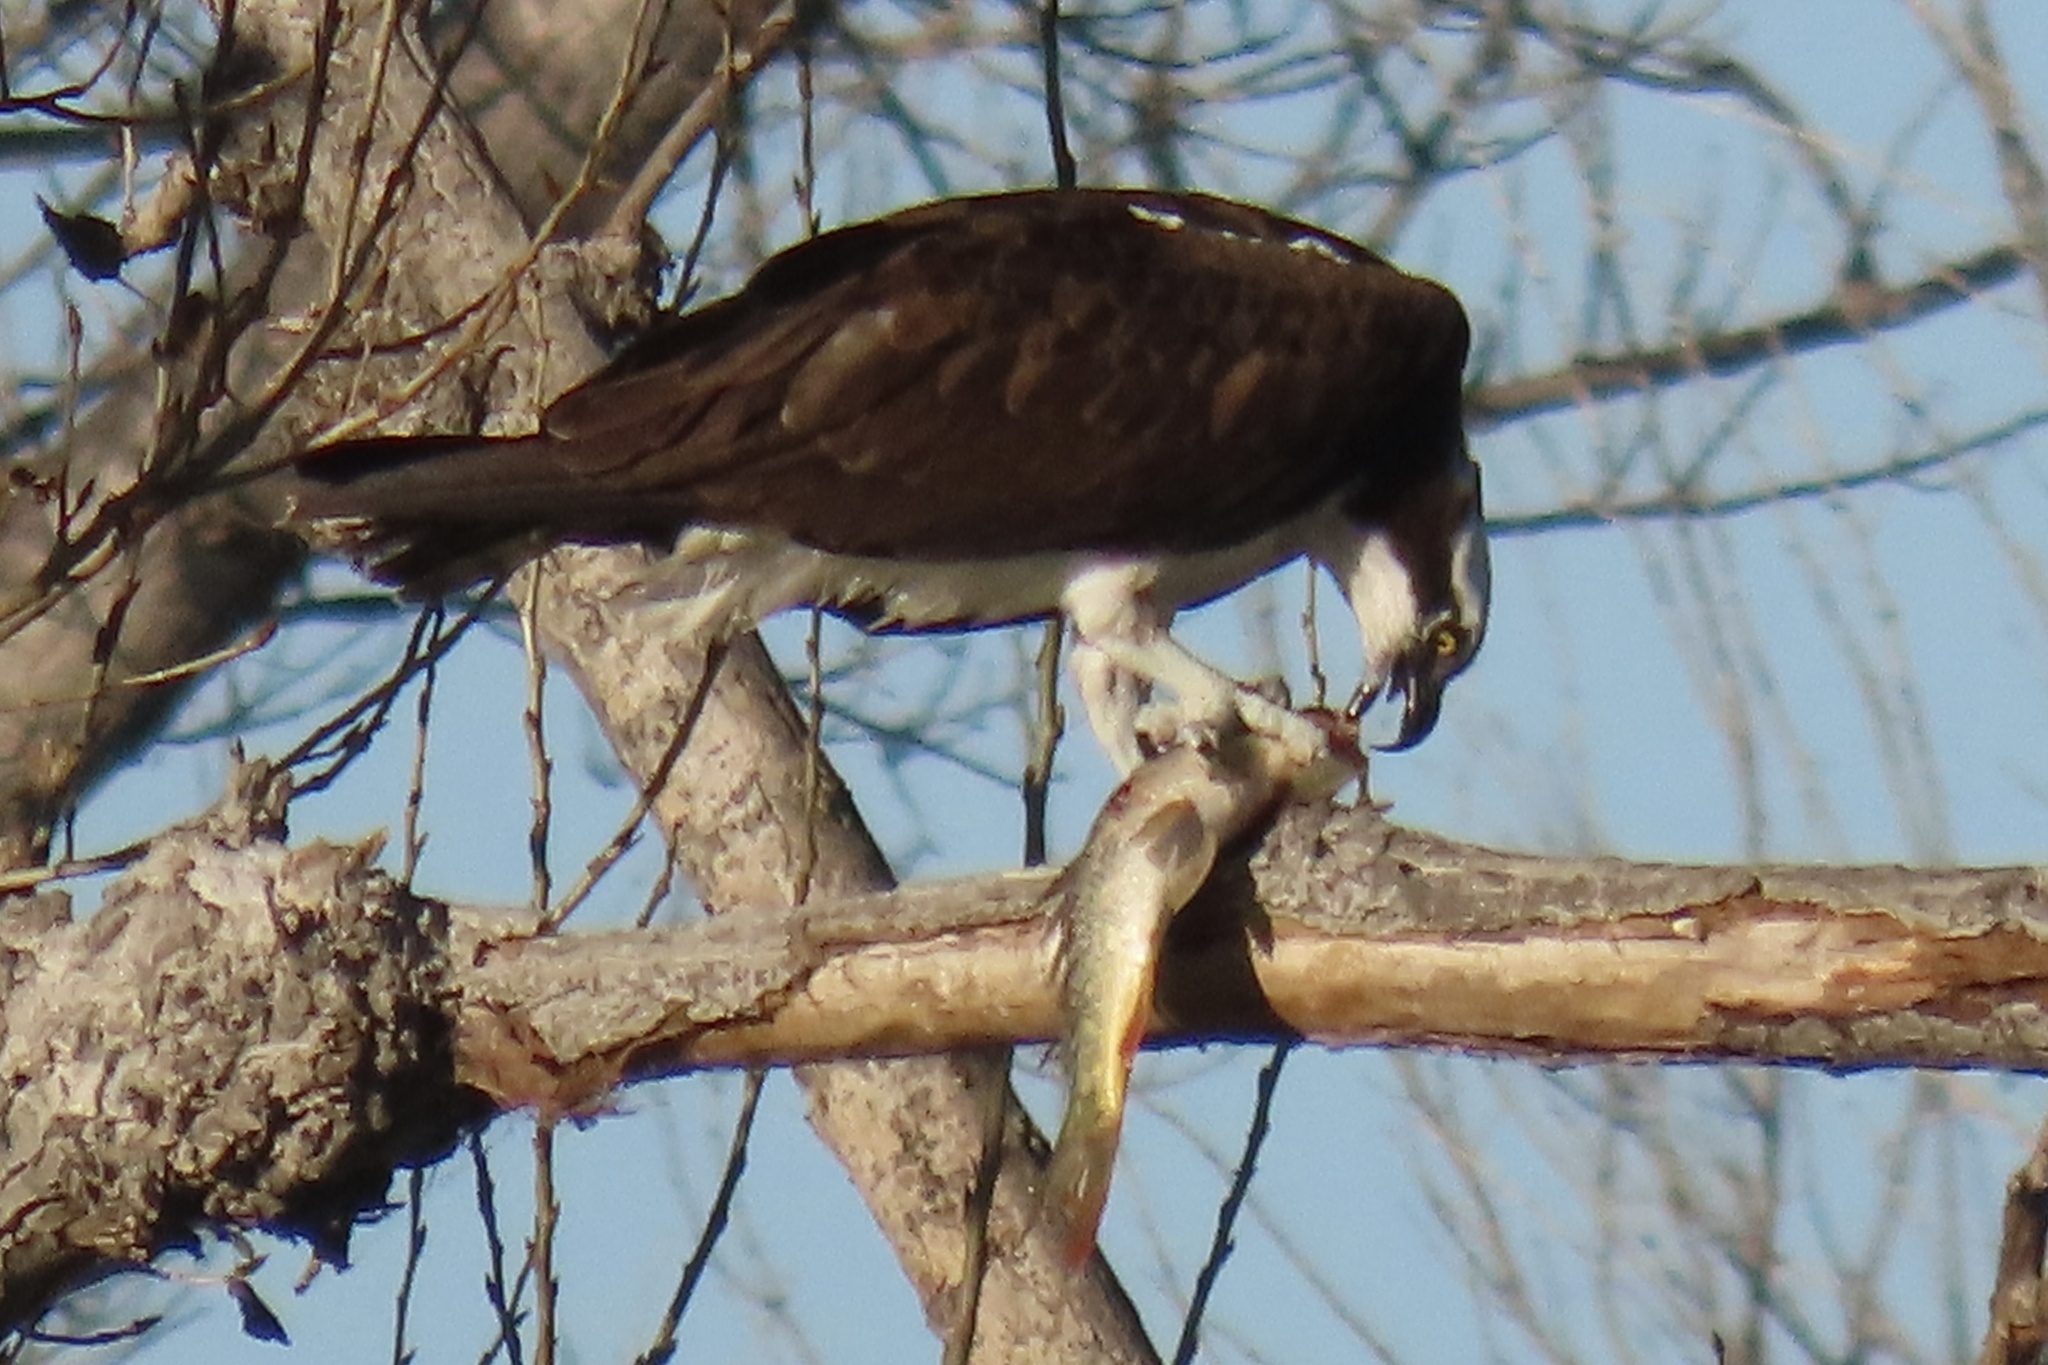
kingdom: Animalia
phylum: Chordata
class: Aves
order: Accipitriformes
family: Pandionidae
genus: Pandion
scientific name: Pandion haliaetus
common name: Osprey
